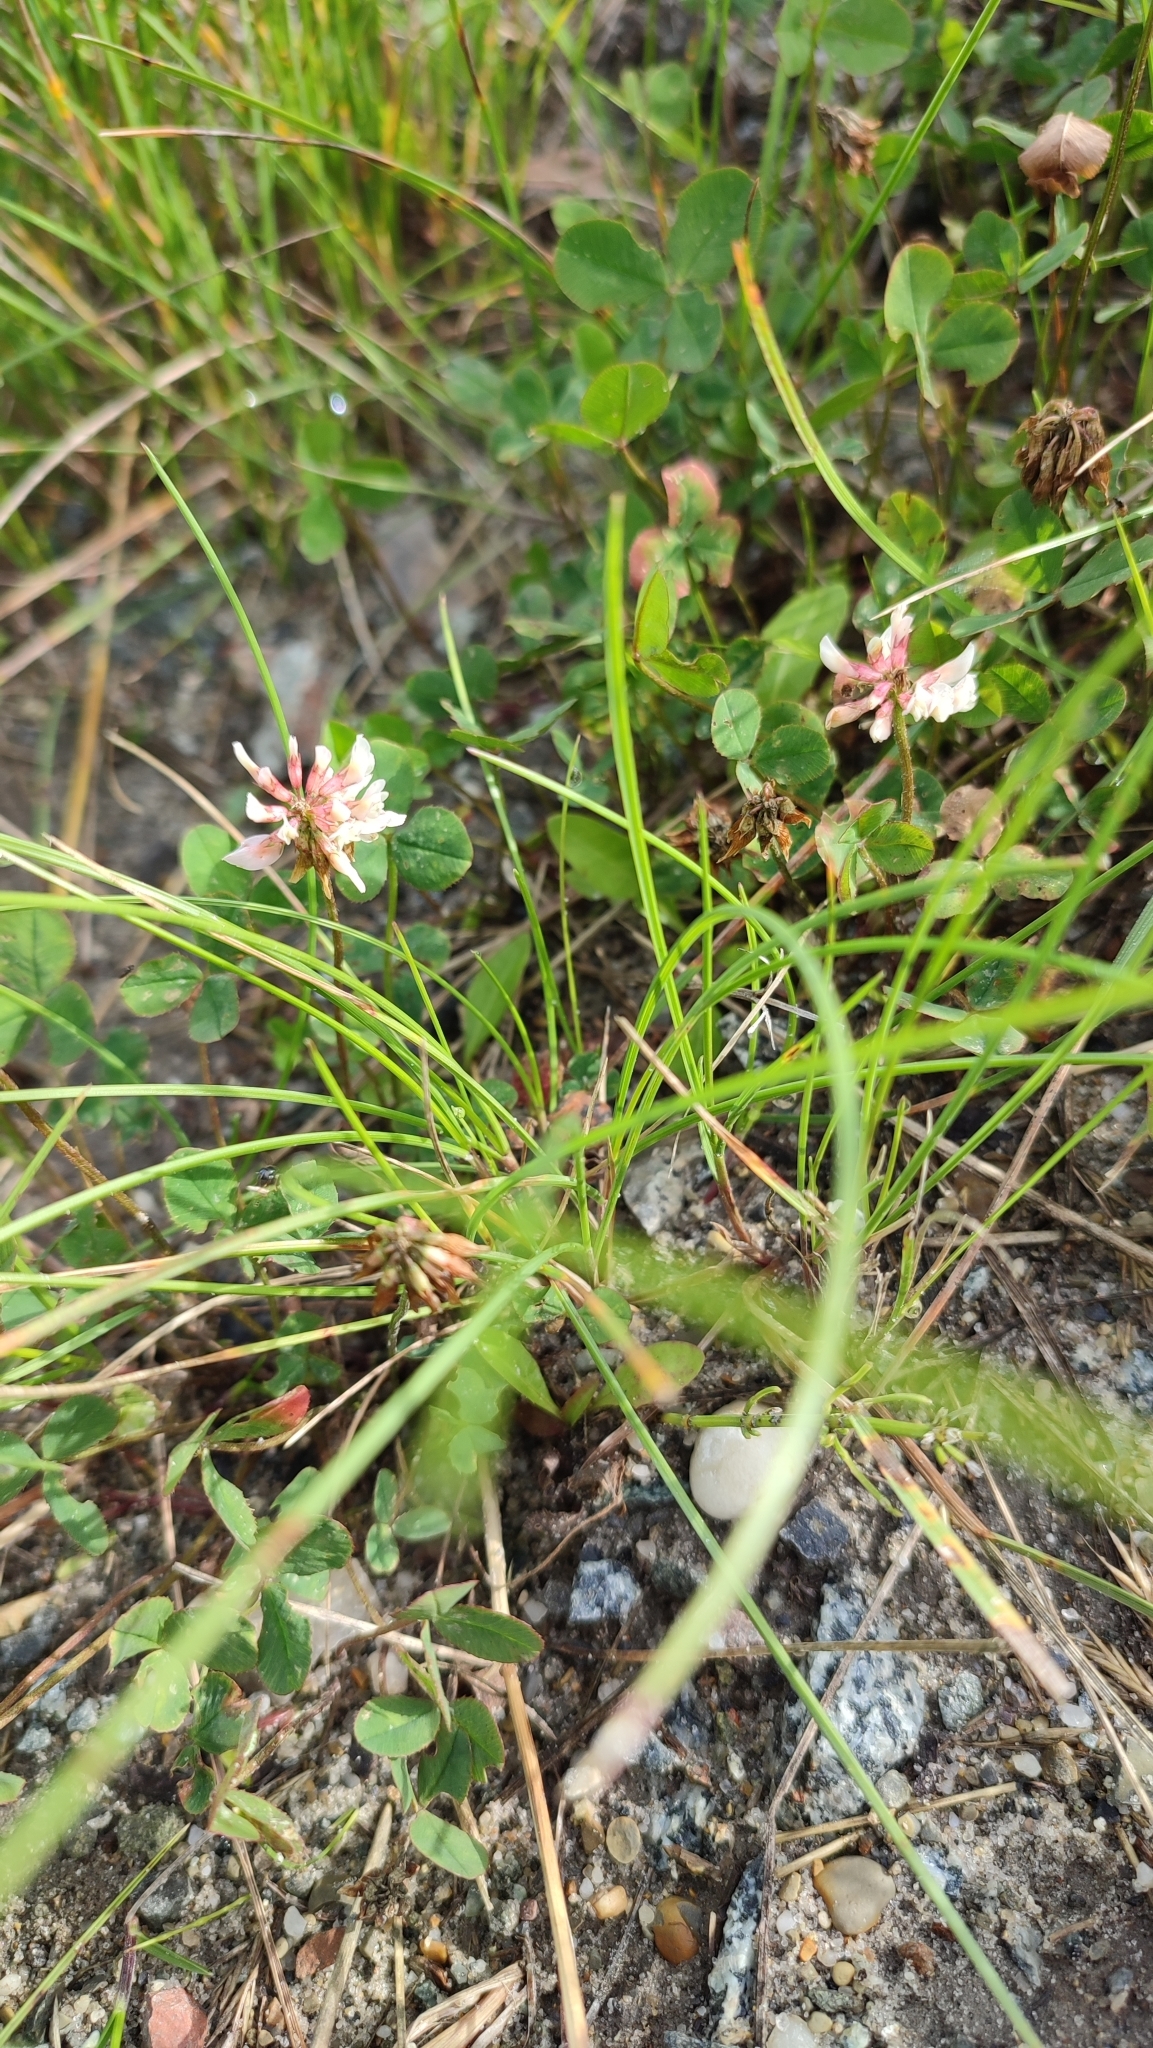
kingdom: Plantae
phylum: Tracheophyta
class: Magnoliopsida
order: Fabales
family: Fabaceae
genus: Trifolium
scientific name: Trifolium hybridum
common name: Alsike clover
